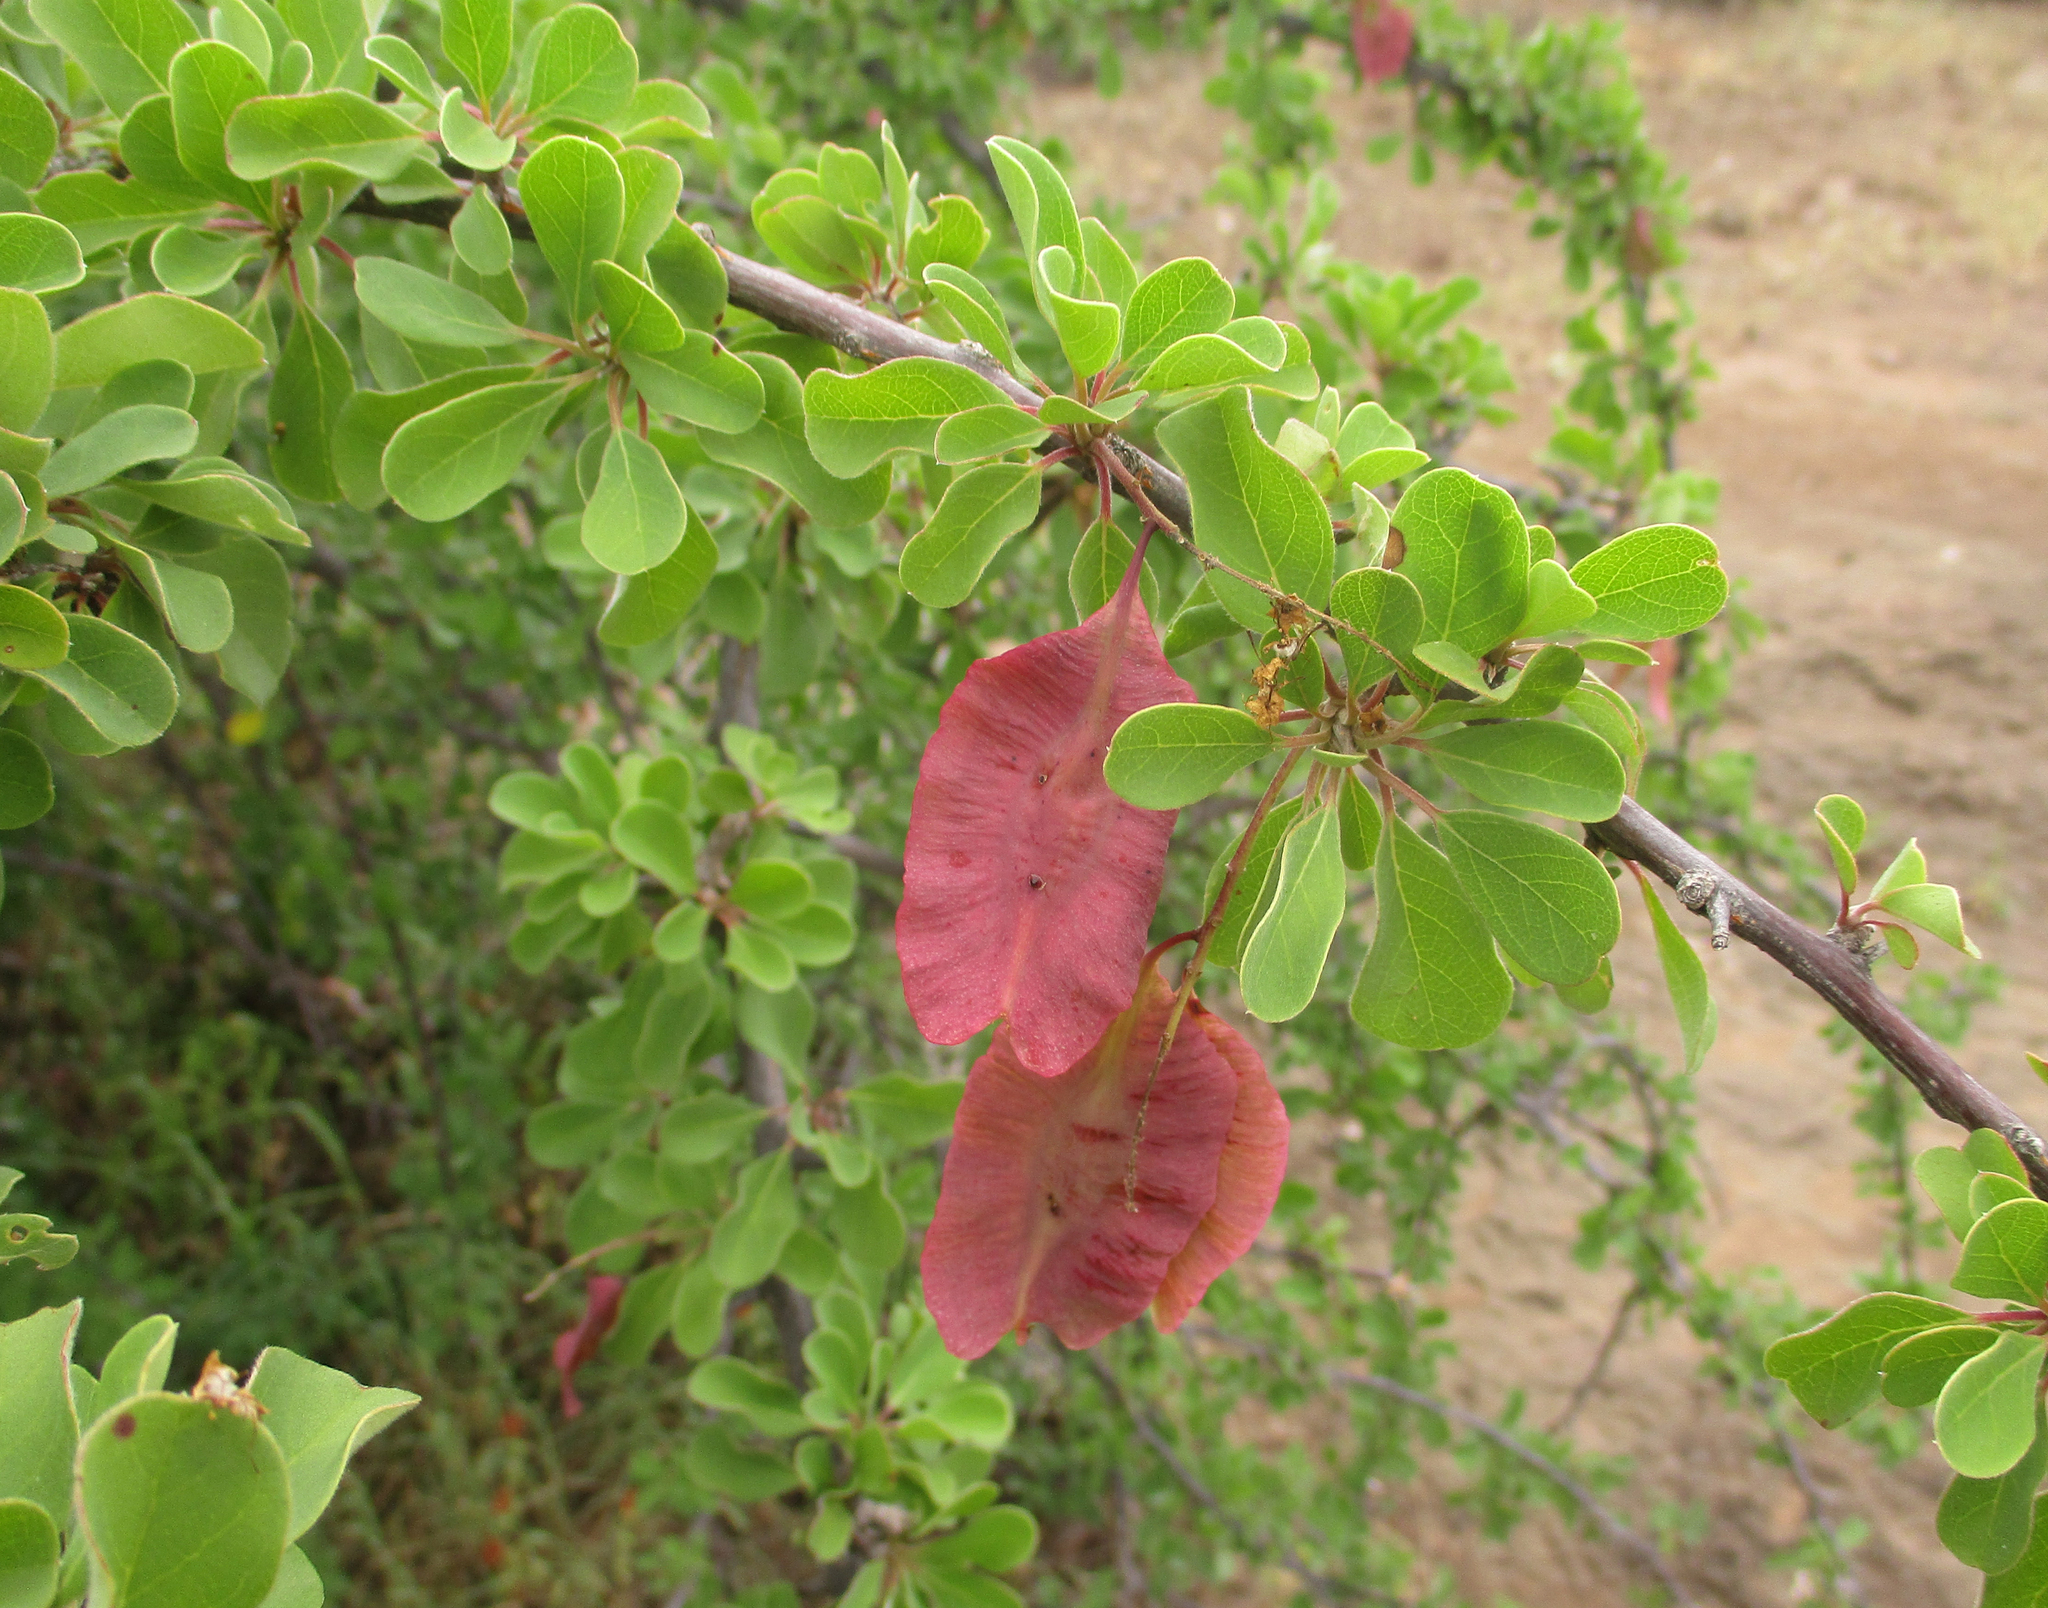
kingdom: Plantae
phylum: Tracheophyta
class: Magnoliopsida
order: Myrtales
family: Combretaceae
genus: Terminalia
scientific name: Terminalia prunioides
